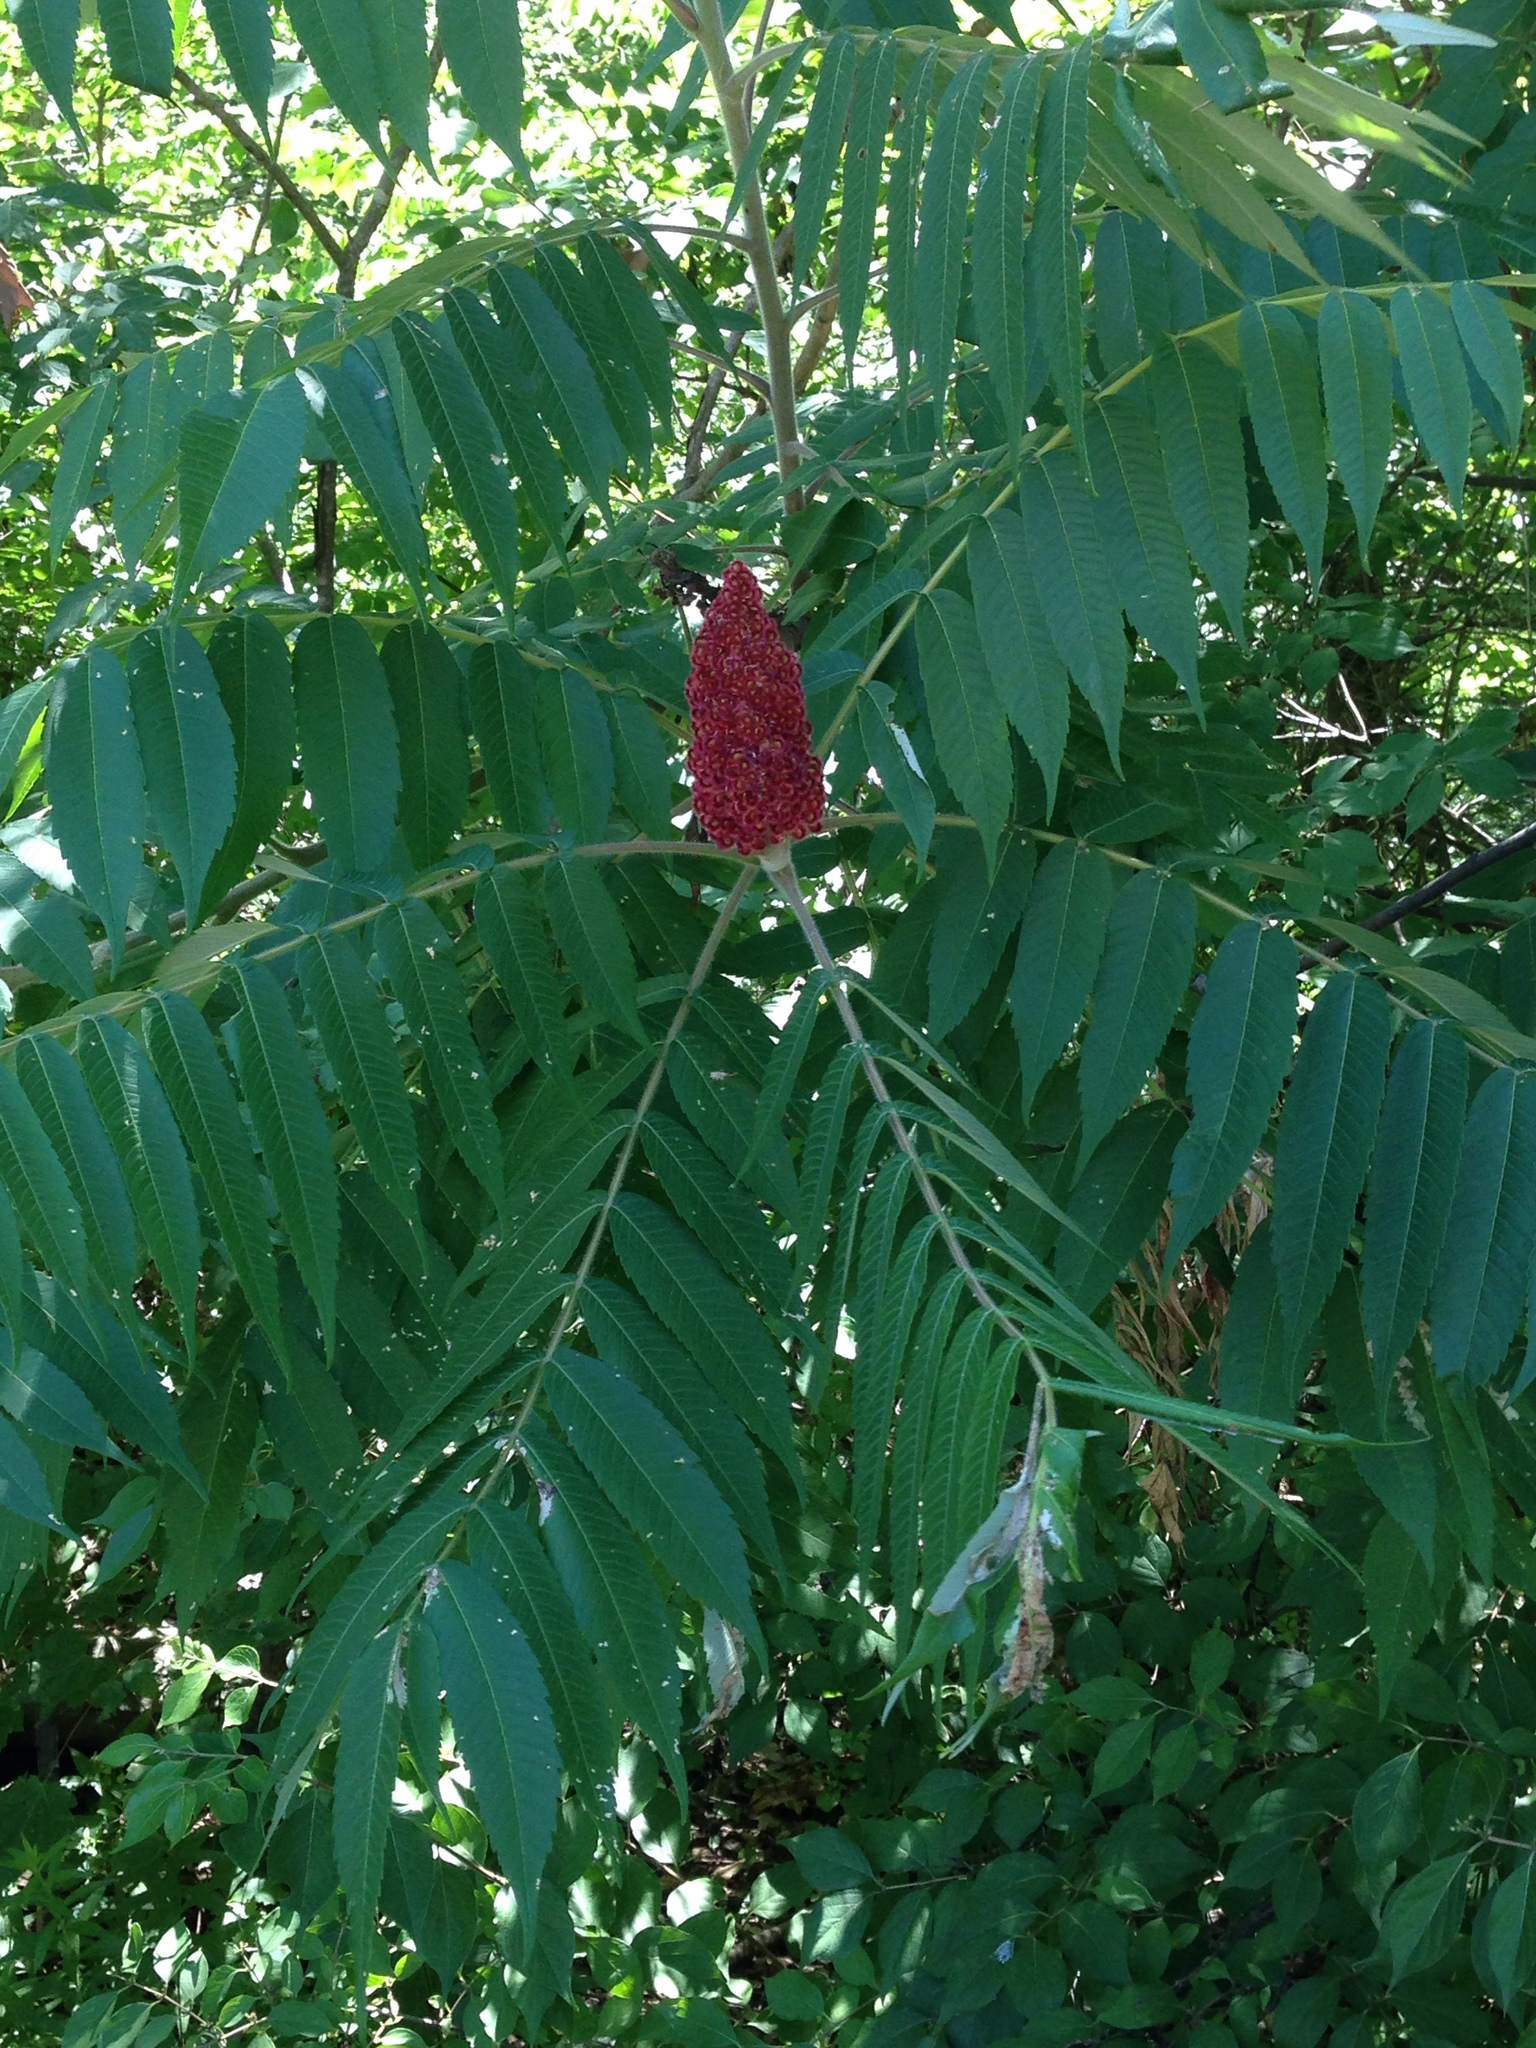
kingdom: Plantae
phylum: Tracheophyta
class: Magnoliopsida
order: Sapindales
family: Anacardiaceae
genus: Rhus
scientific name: Rhus typhina
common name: Staghorn sumac
